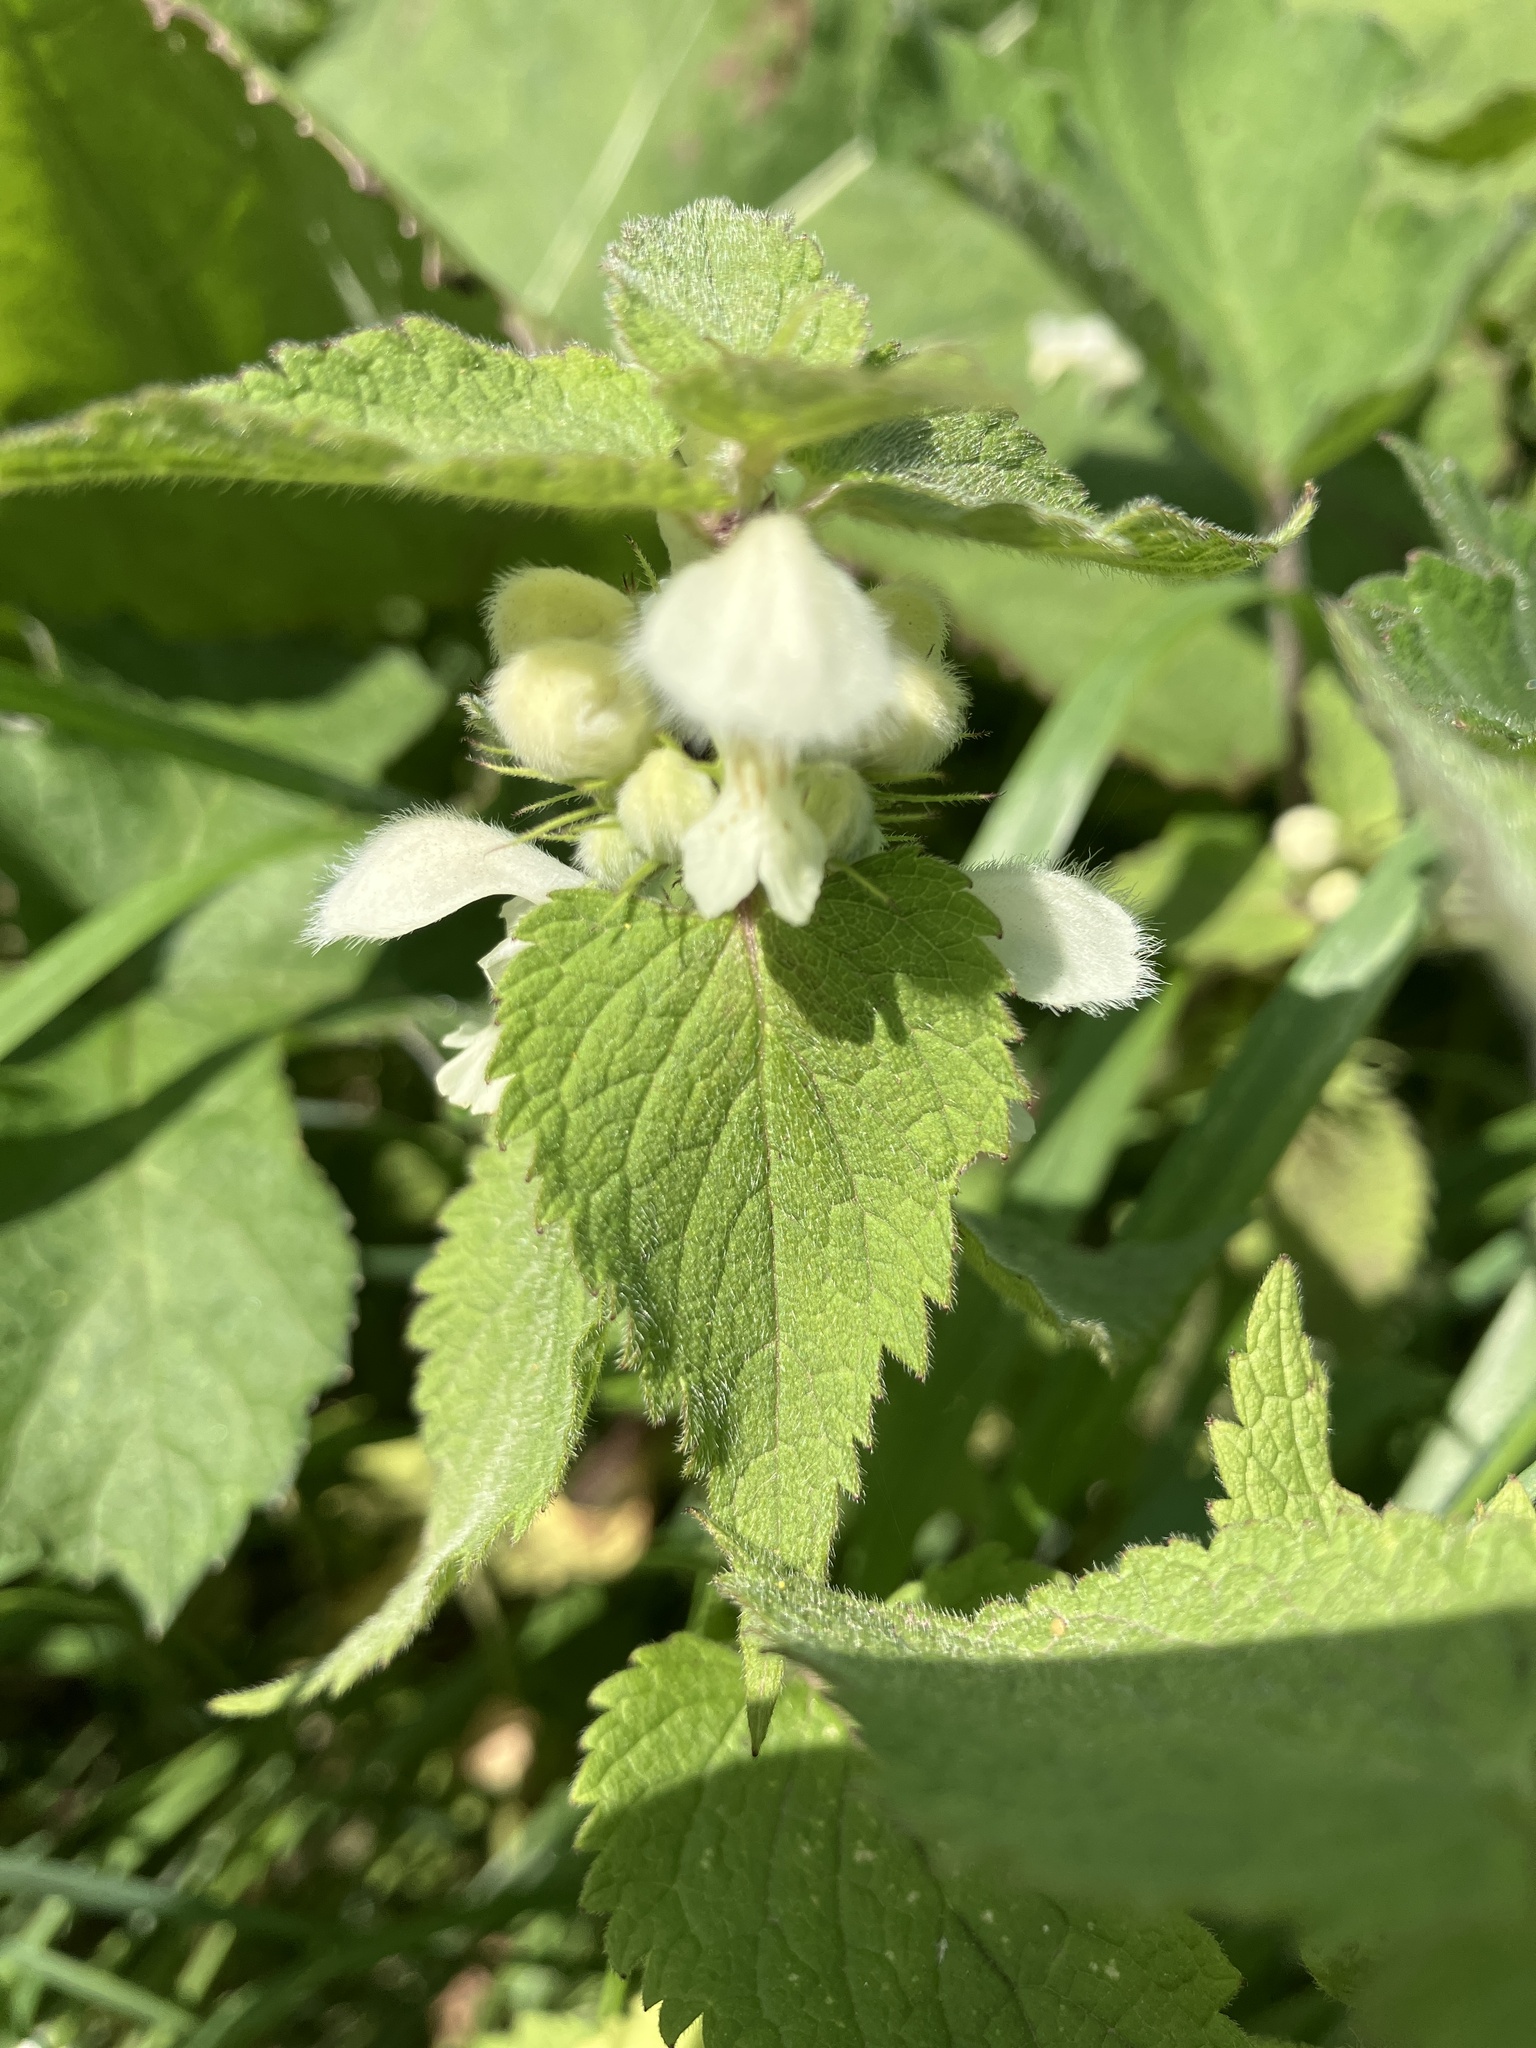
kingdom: Plantae
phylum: Tracheophyta
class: Magnoliopsida
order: Lamiales
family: Lamiaceae
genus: Lamium
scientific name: Lamium album
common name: White dead-nettle
